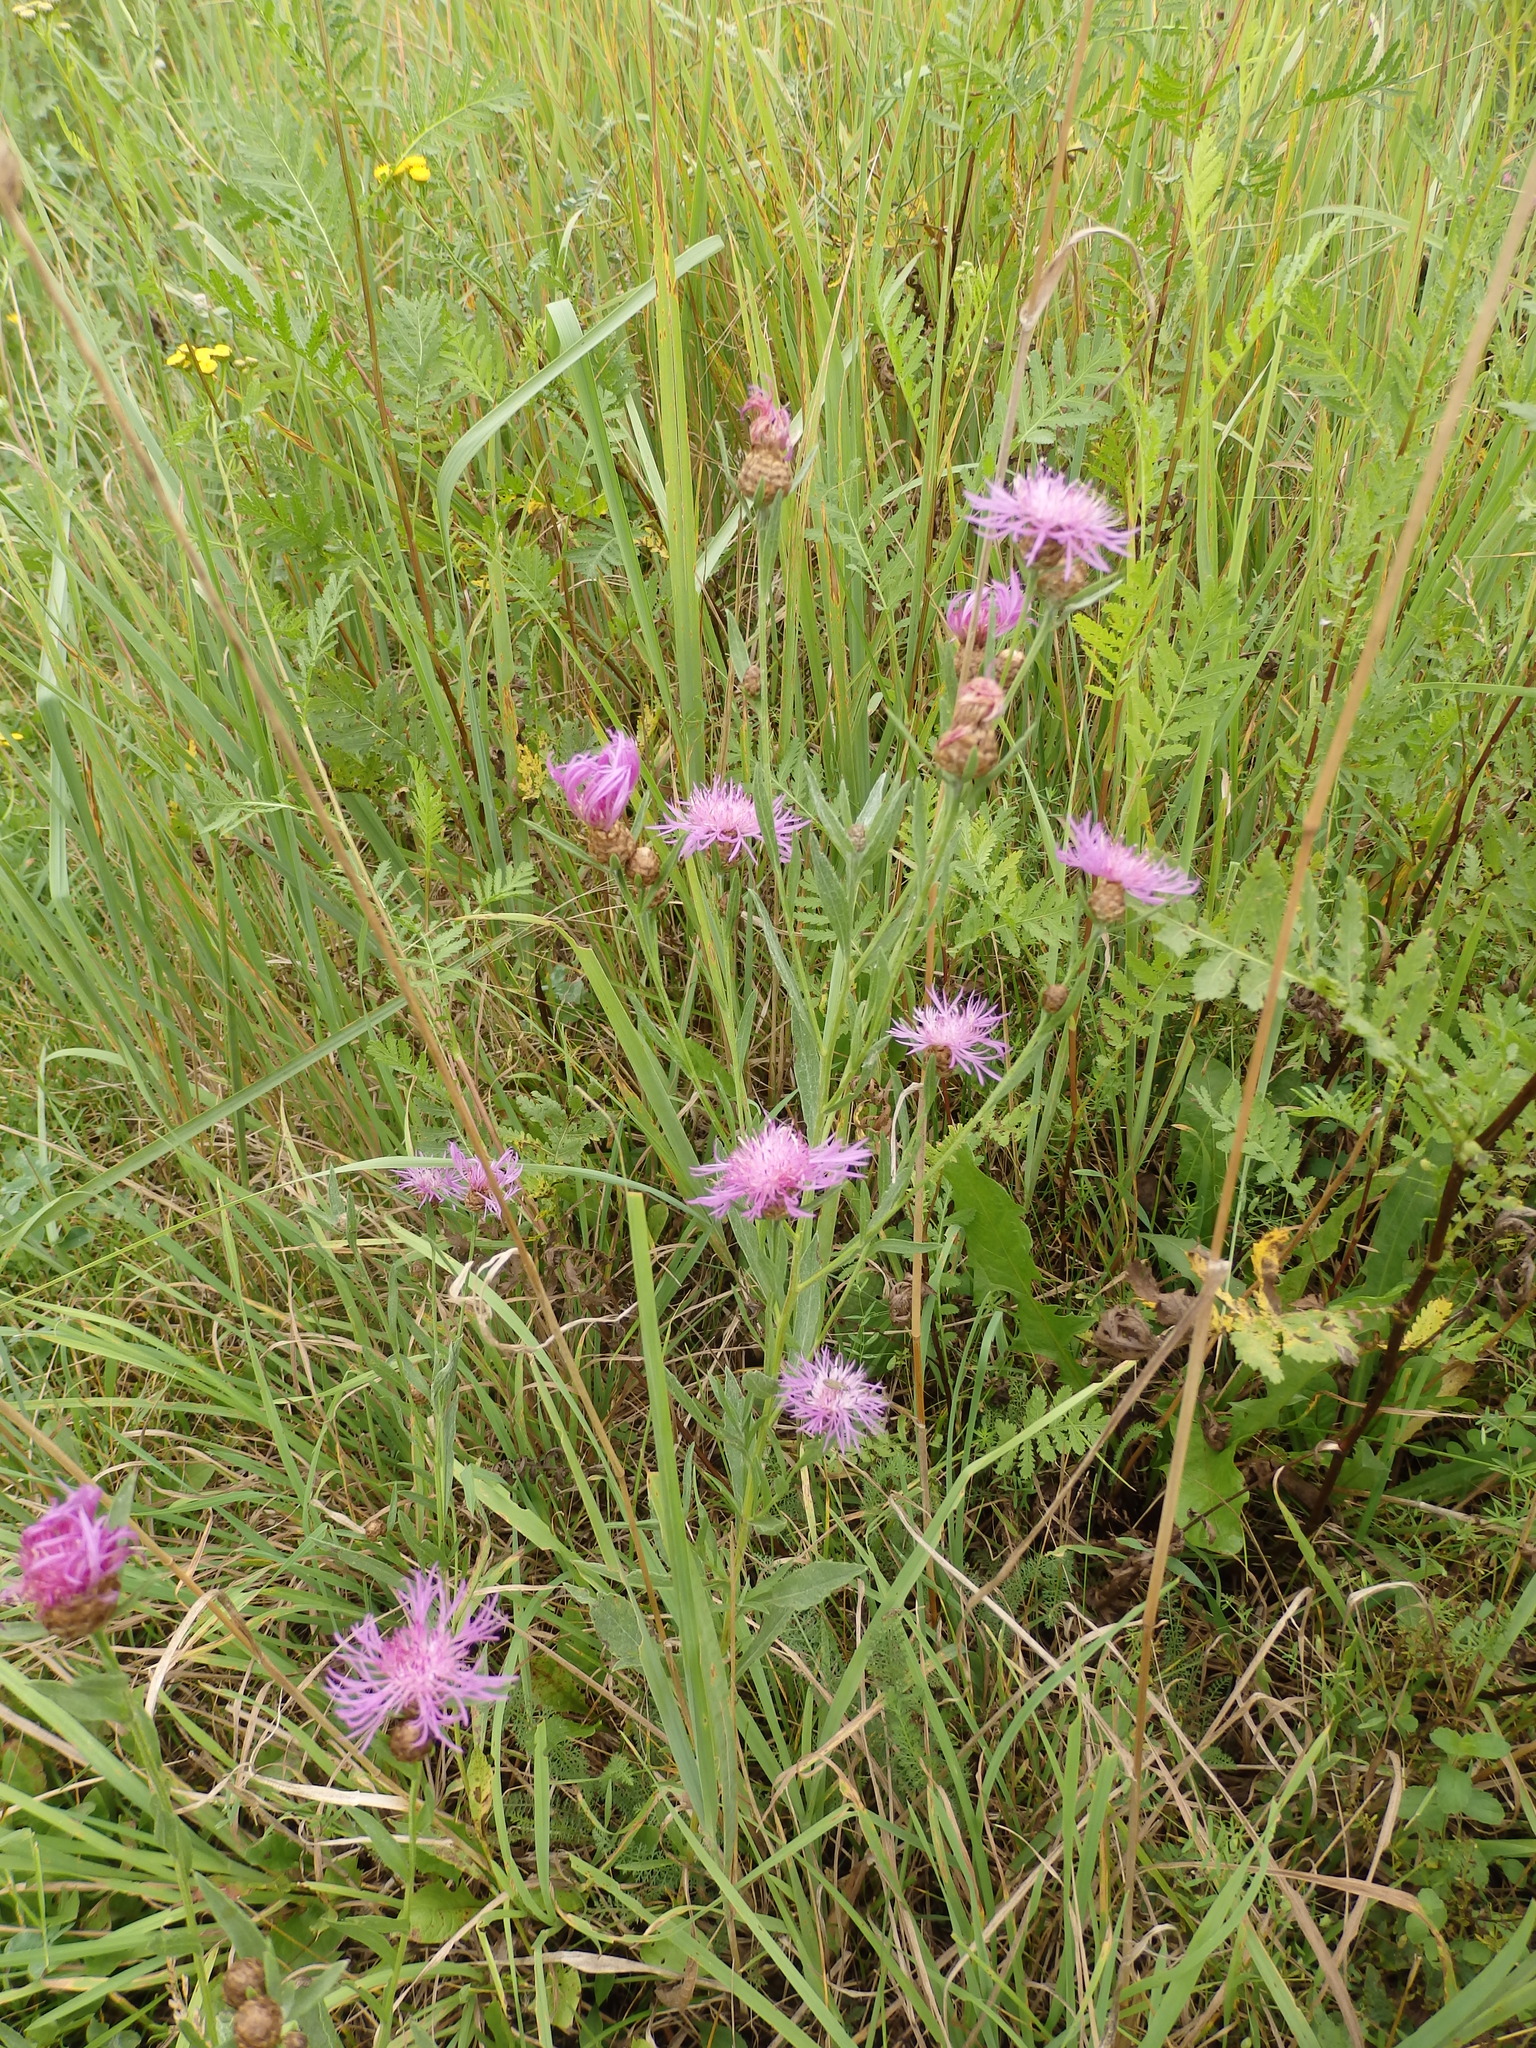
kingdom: Plantae
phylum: Tracheophyta
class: Magnoliopsida
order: Asterales
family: Asteraceae
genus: Centaurea
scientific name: Centaurea jacea
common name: Brown knapweed
